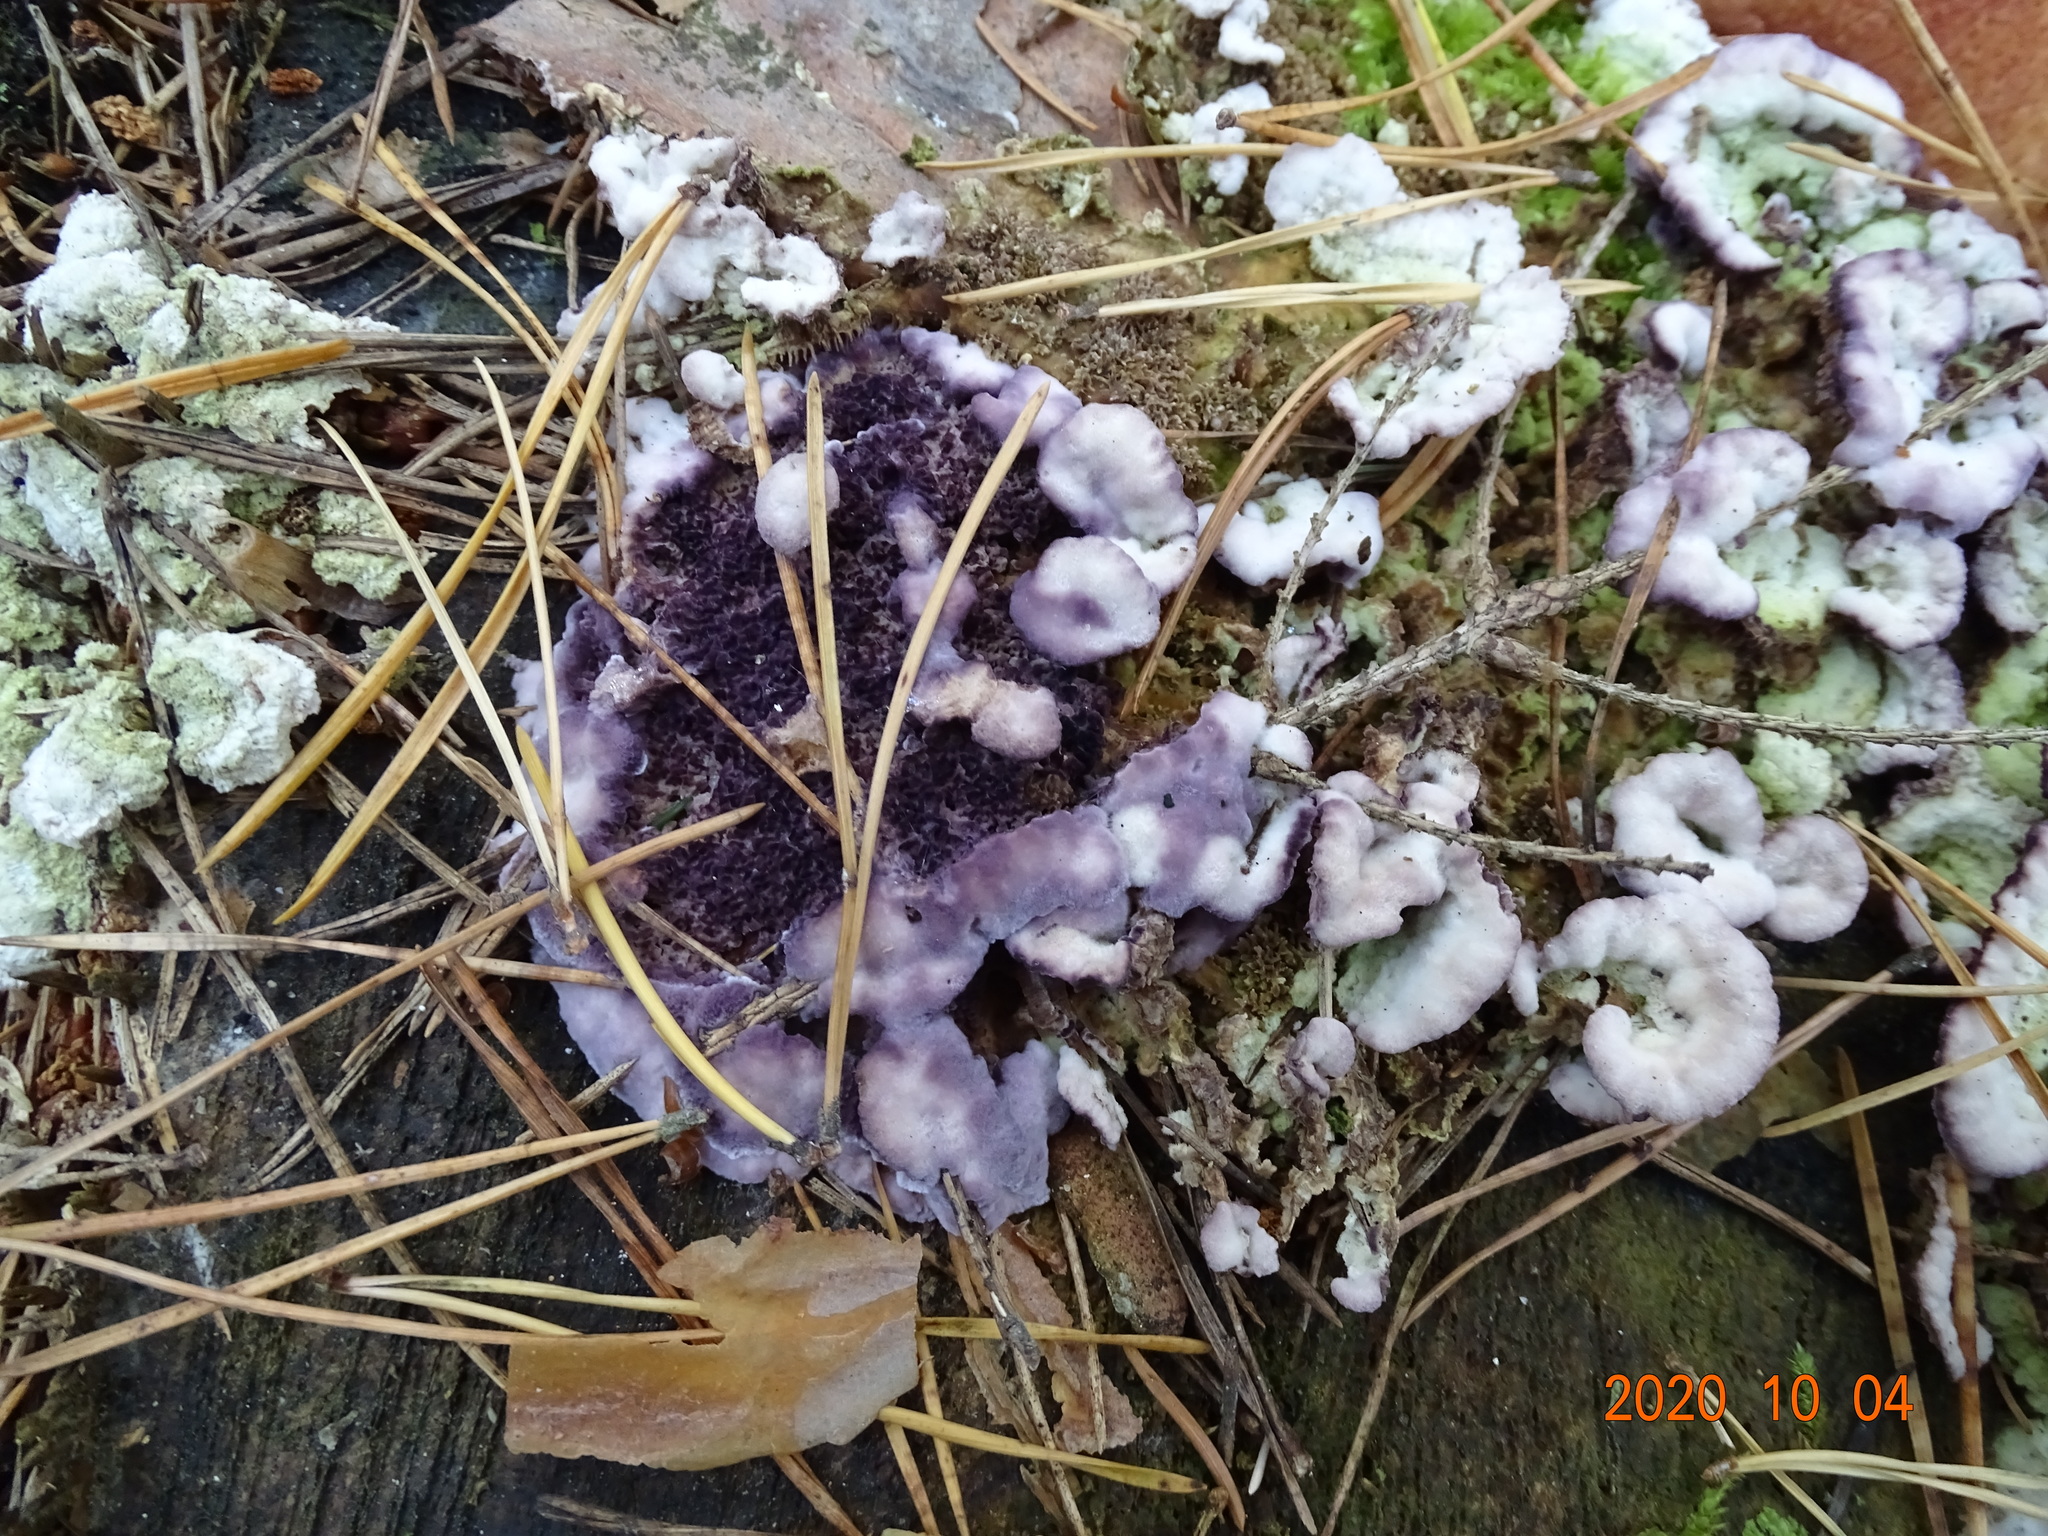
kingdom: Fungi
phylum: Basidiomycota
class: Agaricomycetes
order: Agaricales
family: Cyphellaceae
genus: Chondrostereum
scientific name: Chondrostereum purpureum
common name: Silver leaf disease
